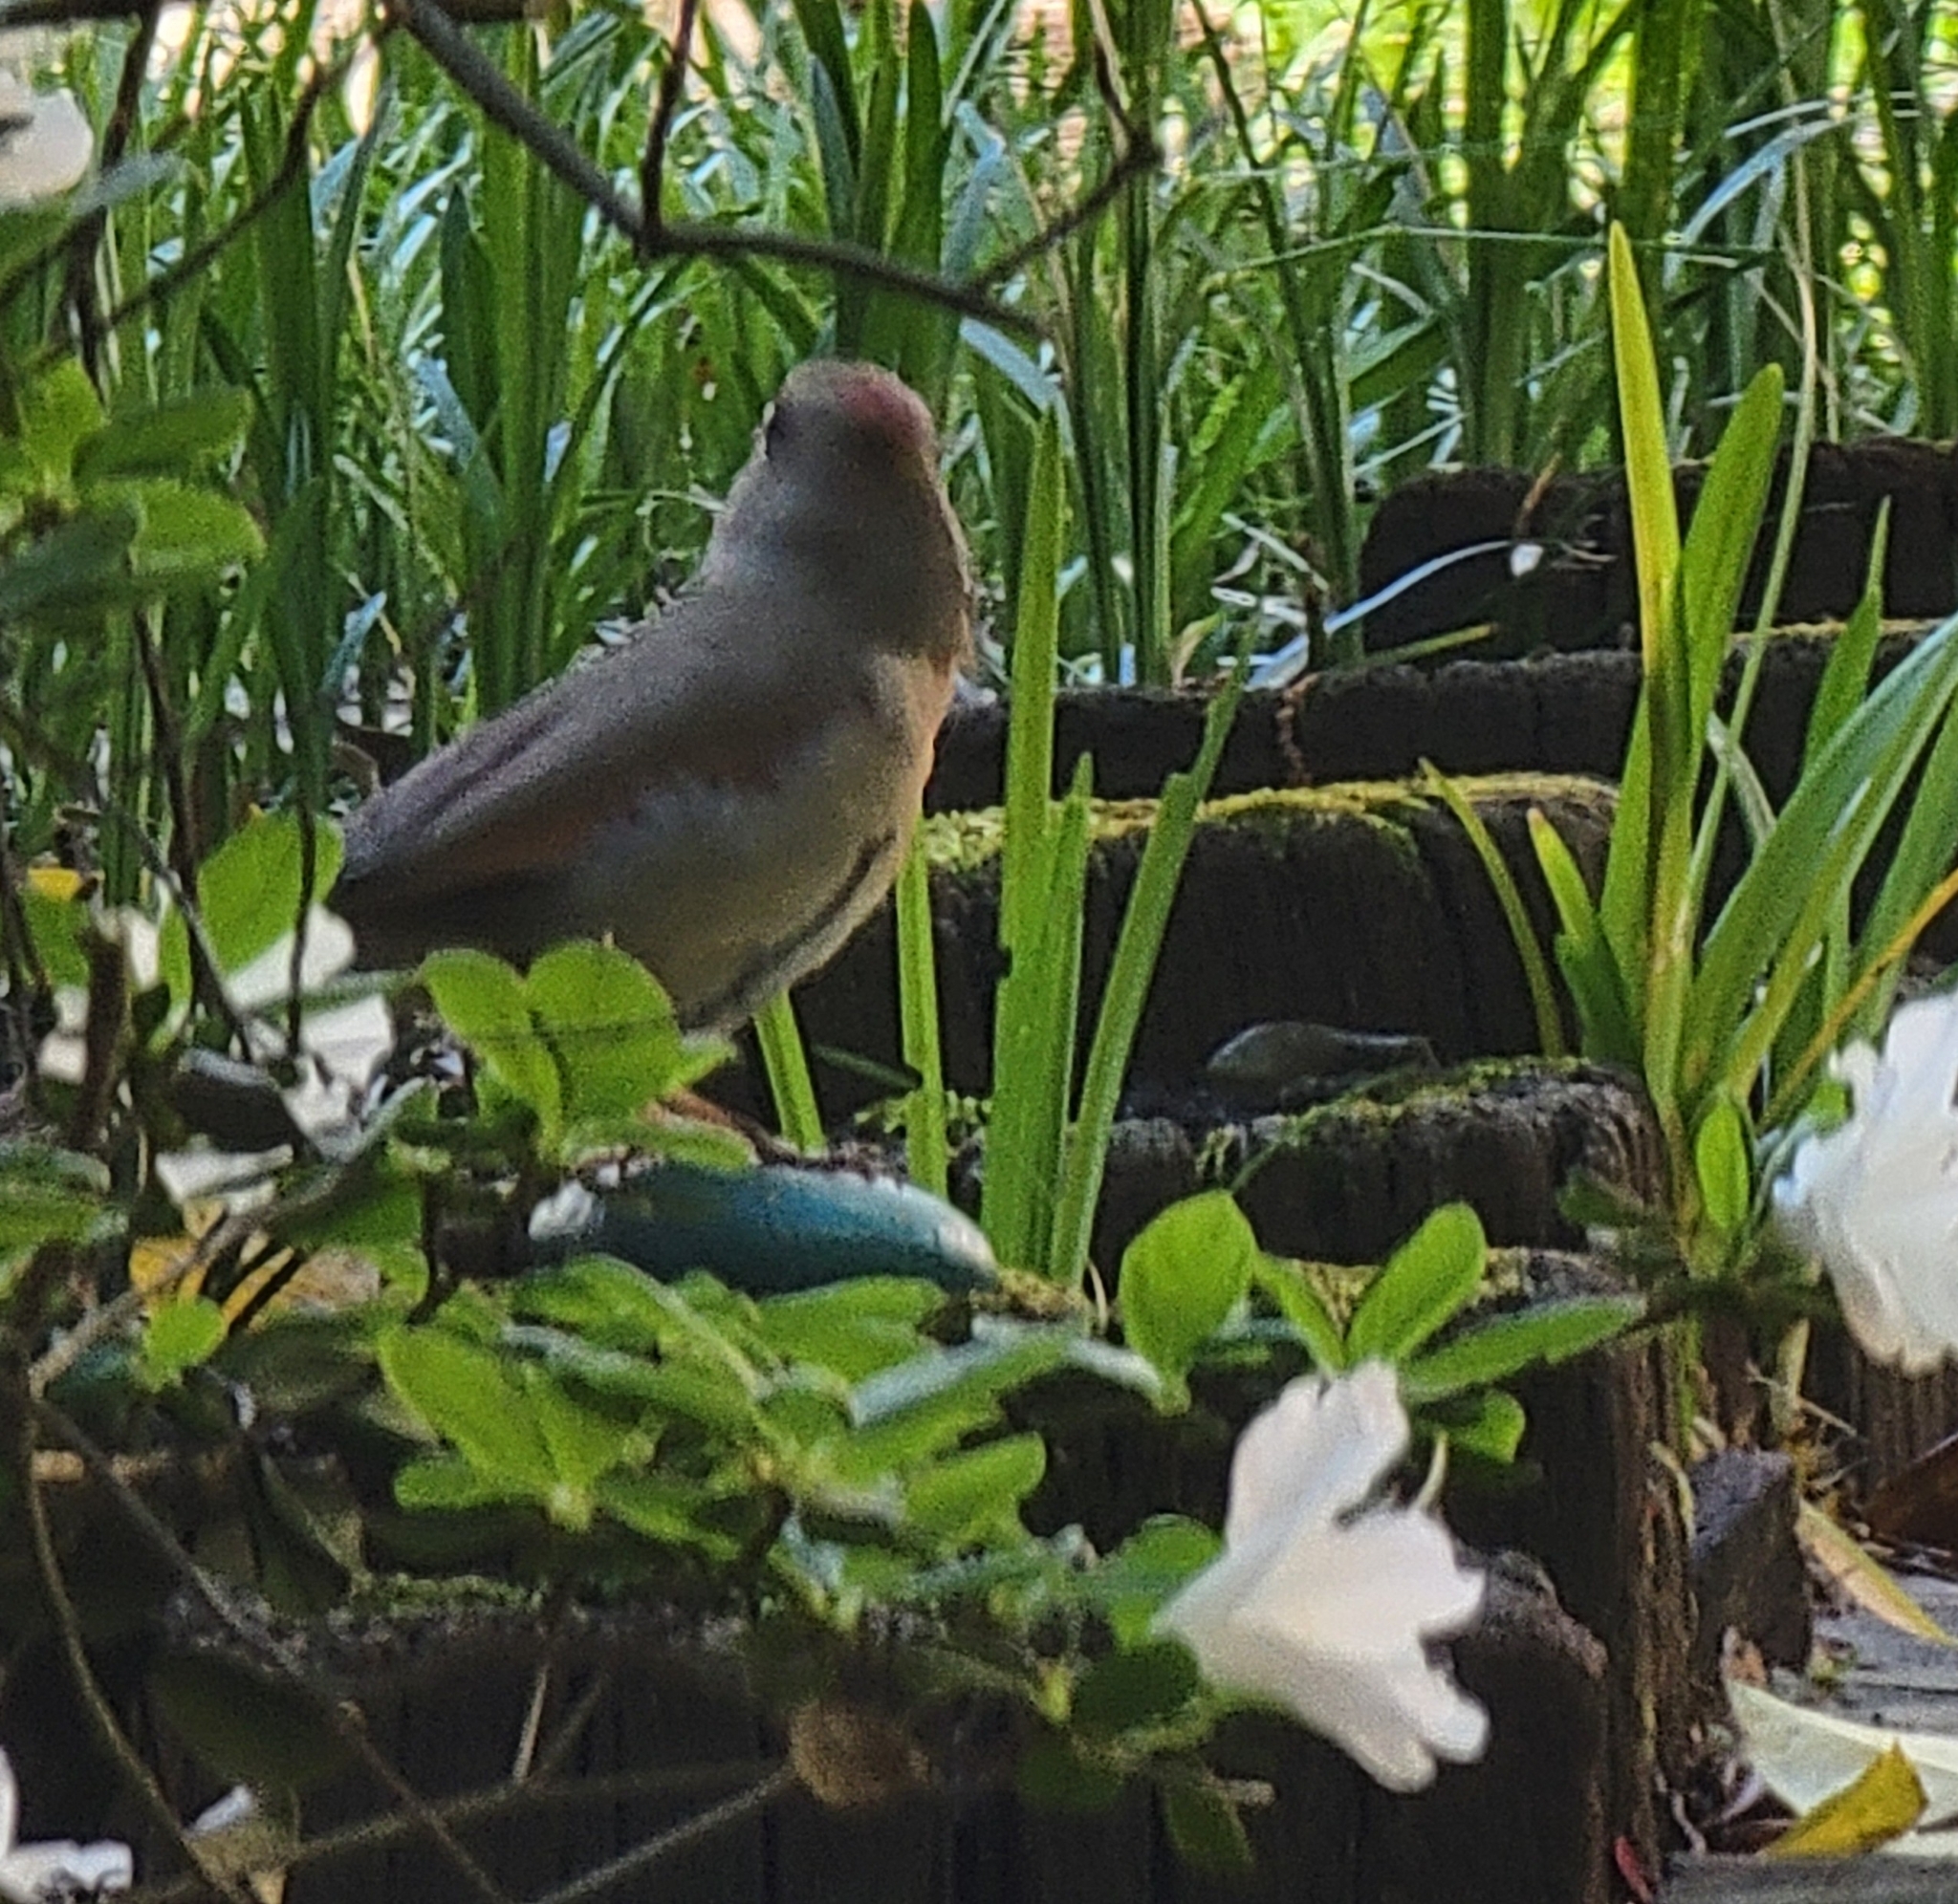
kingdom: Animalia
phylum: Chordata
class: Aves
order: Passeriformes
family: Cardinalidae
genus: Cardinalis
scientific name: Cardinalis cardinalis
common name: Northern cardinal
